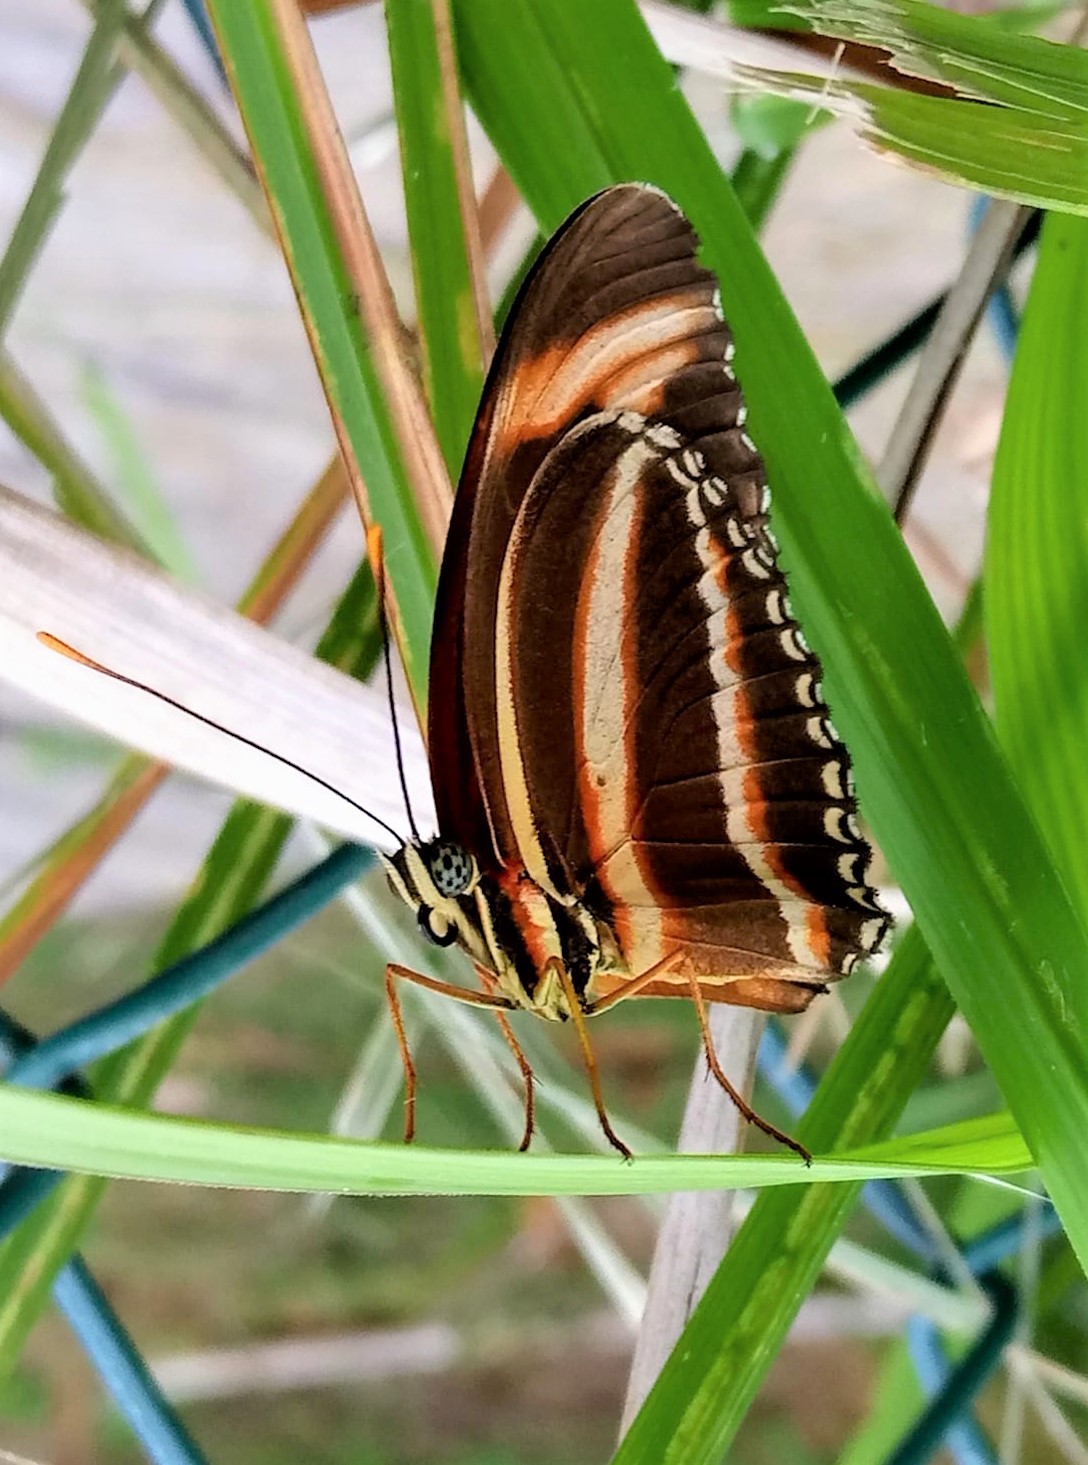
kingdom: Animalia
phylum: Arthropoda
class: Insecta
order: Lepidoptera
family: Nymphalidae
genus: Dryadula
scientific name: Dryadula phaetusa
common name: Banded orange heliconian
